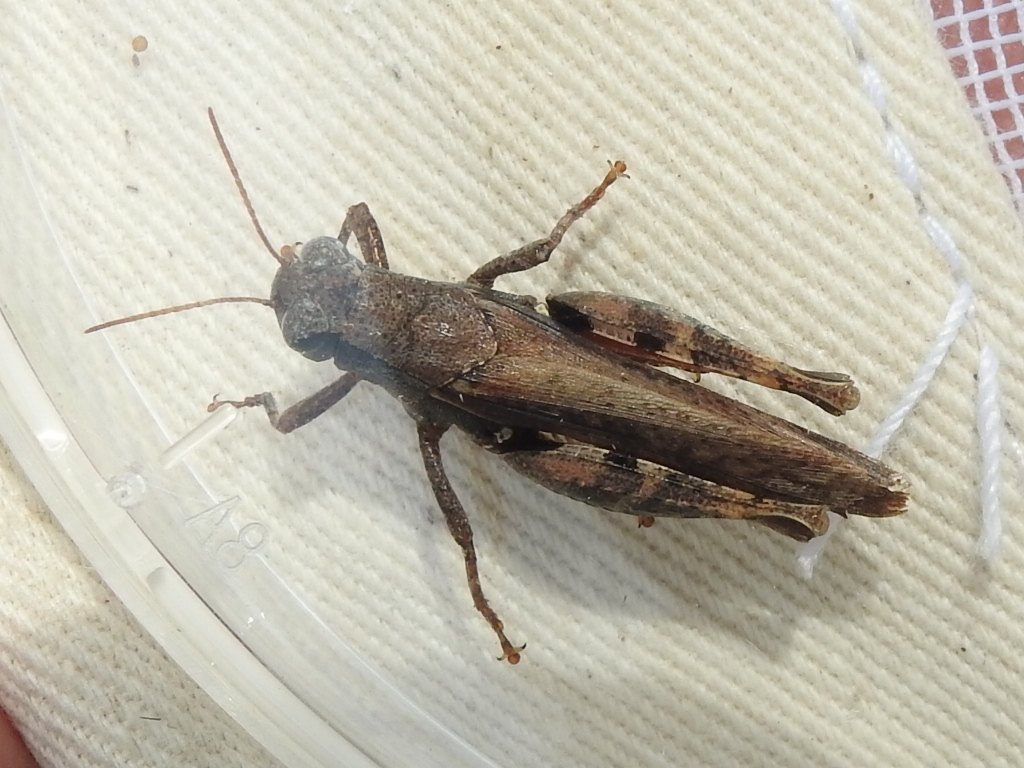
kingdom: Animalia
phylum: Arthropoda
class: Insecta
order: Orthoptera
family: Acrididae
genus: Aidemona
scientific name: Aidemona azteca
